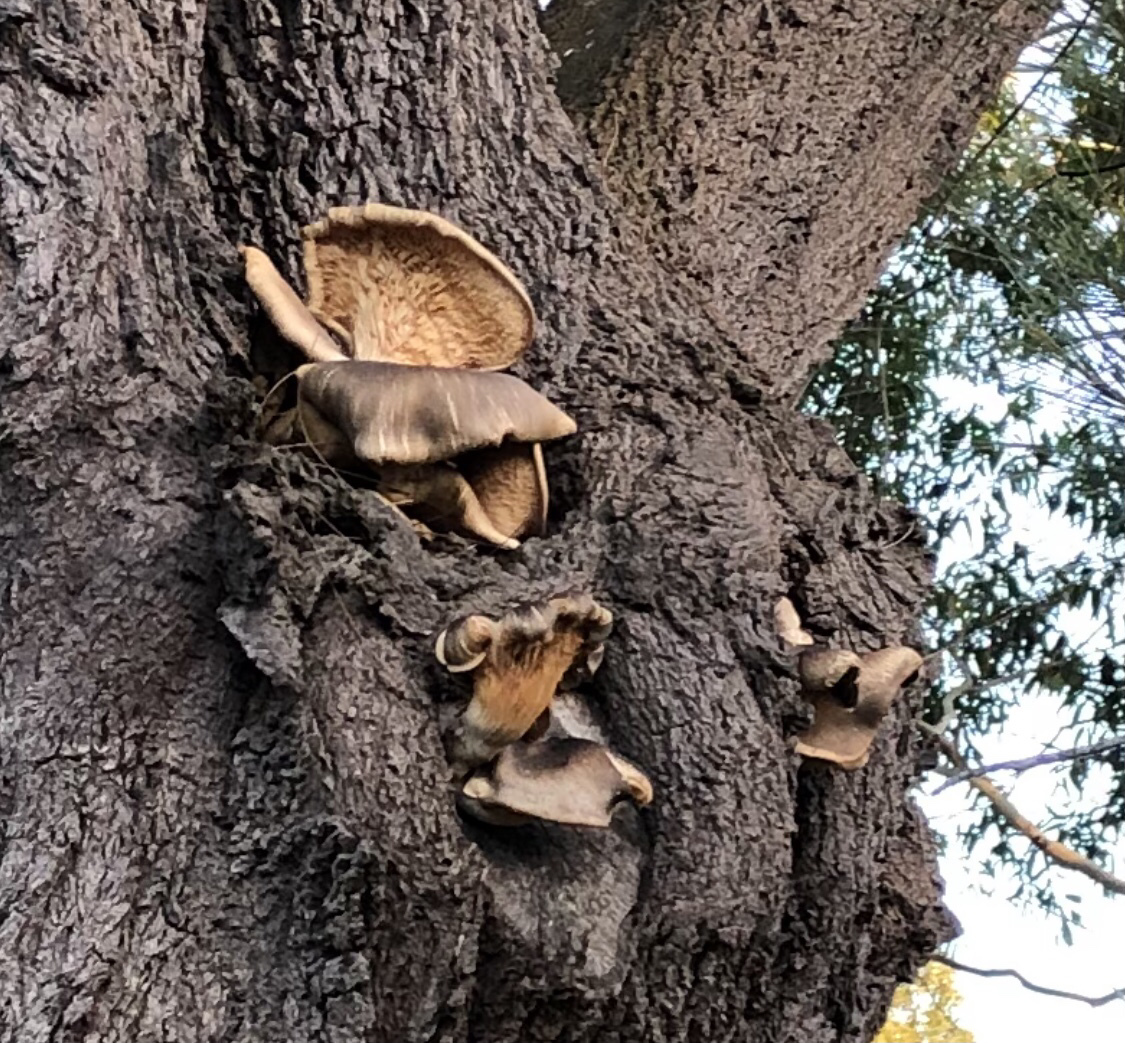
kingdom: Fungi
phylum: Basidiomycota
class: Agaricomycetes
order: Agaricales
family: Omphalotaceae
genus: Omphalotus
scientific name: Omphalotus nidiformis
